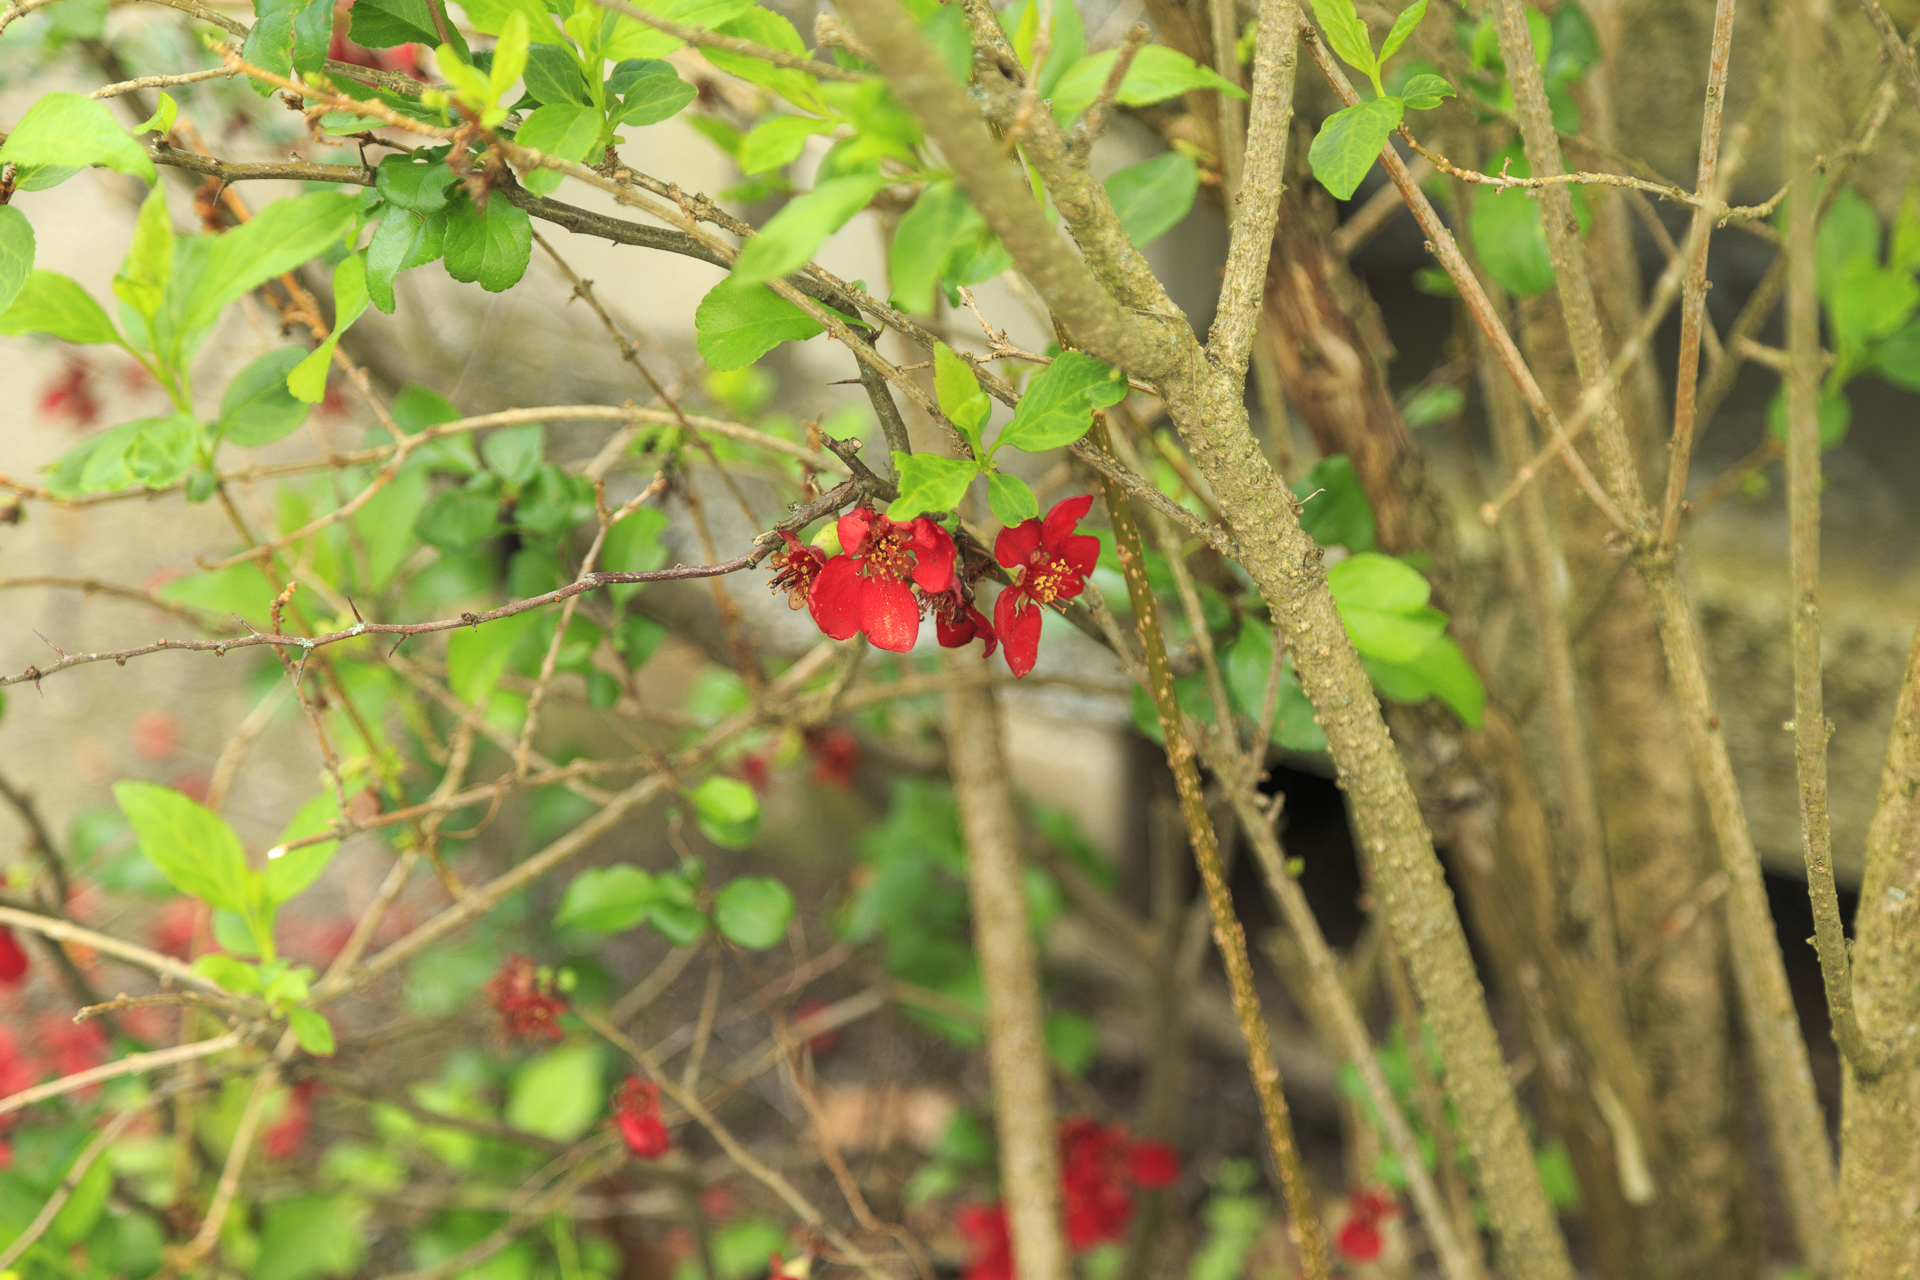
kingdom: Plantae
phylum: Tracheophyta
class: Magnoliopsida
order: Rosales
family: Rosaceae
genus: Chaenomeles
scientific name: Chaenomeles speciosa
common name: Japanese quince
